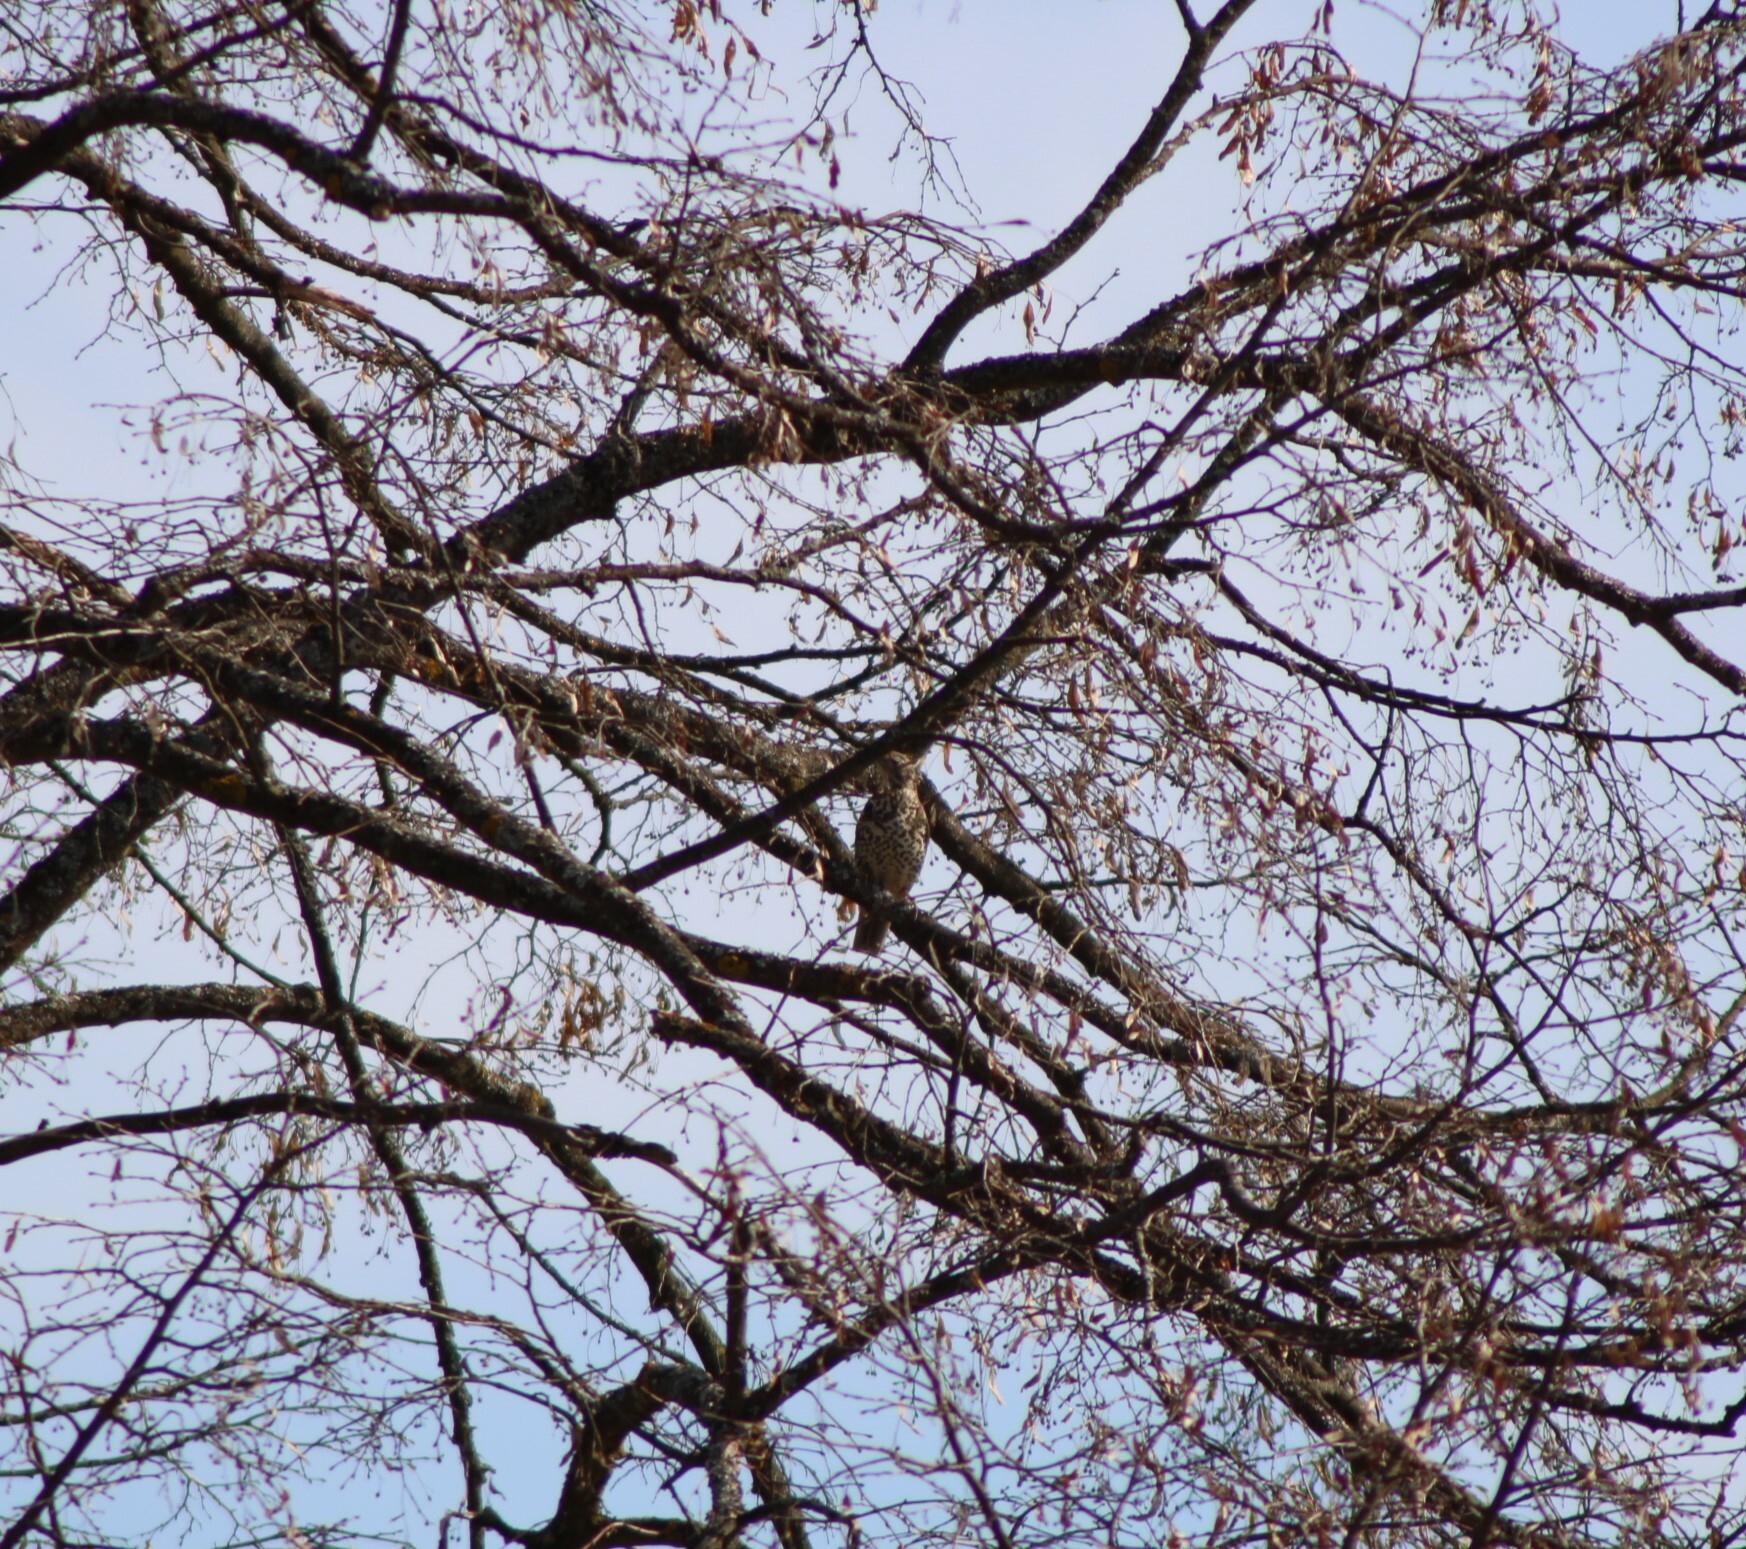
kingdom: Animalia
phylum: Chordata
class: Aves
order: Passeriformes
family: Turdidae
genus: Turdus
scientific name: Turdus viscivorus
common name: Mistle thrush
